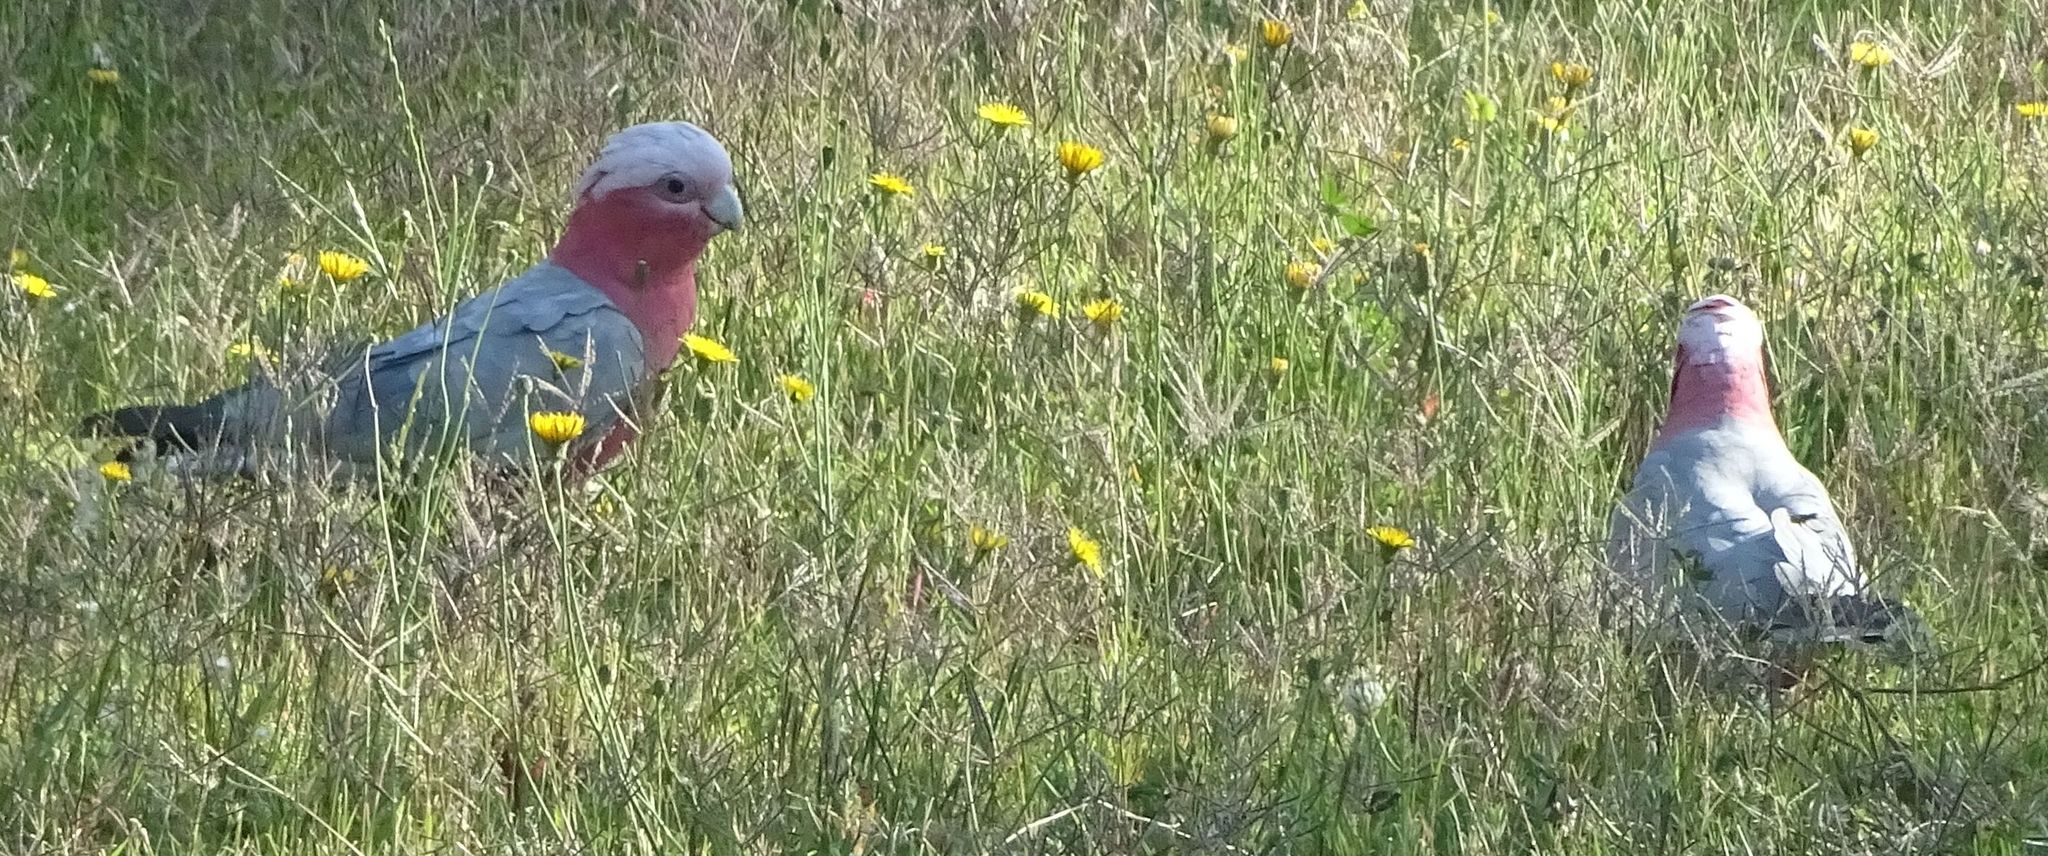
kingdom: Animalia
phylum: Chordata
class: Aves
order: Psittaciformes
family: Psittacidae
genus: Eolophus
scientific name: Eolophus roseicapilla
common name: Galah
